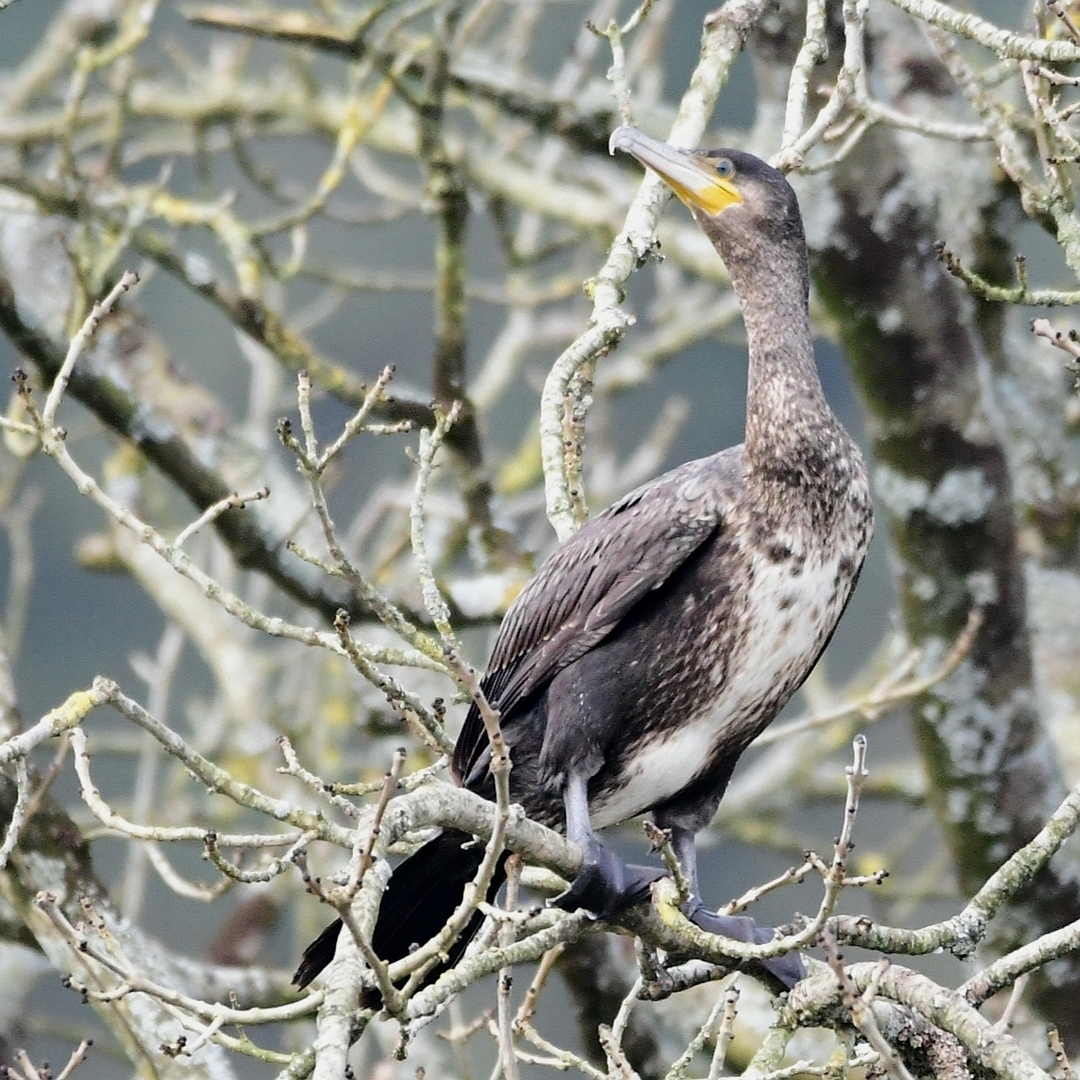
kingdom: Animalia
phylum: Chordata
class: Aves
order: Suliformes
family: Phalacrocoracidae
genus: Phalacrocorax
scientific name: Phalacrocorax carbo
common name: Great cormorant
